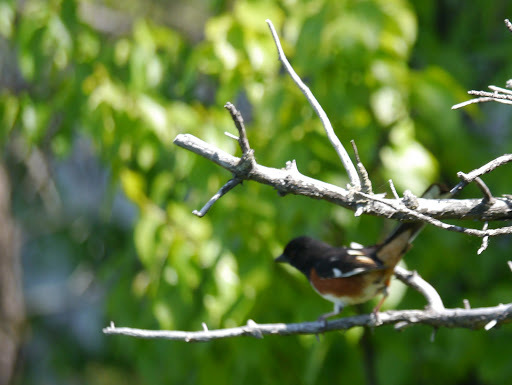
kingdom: Animalia
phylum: Chordata
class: Aves
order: Passeriformes
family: Passerellidae
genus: Pipilo
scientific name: Pipilo erythrophthalmus
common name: Eastern towhee
